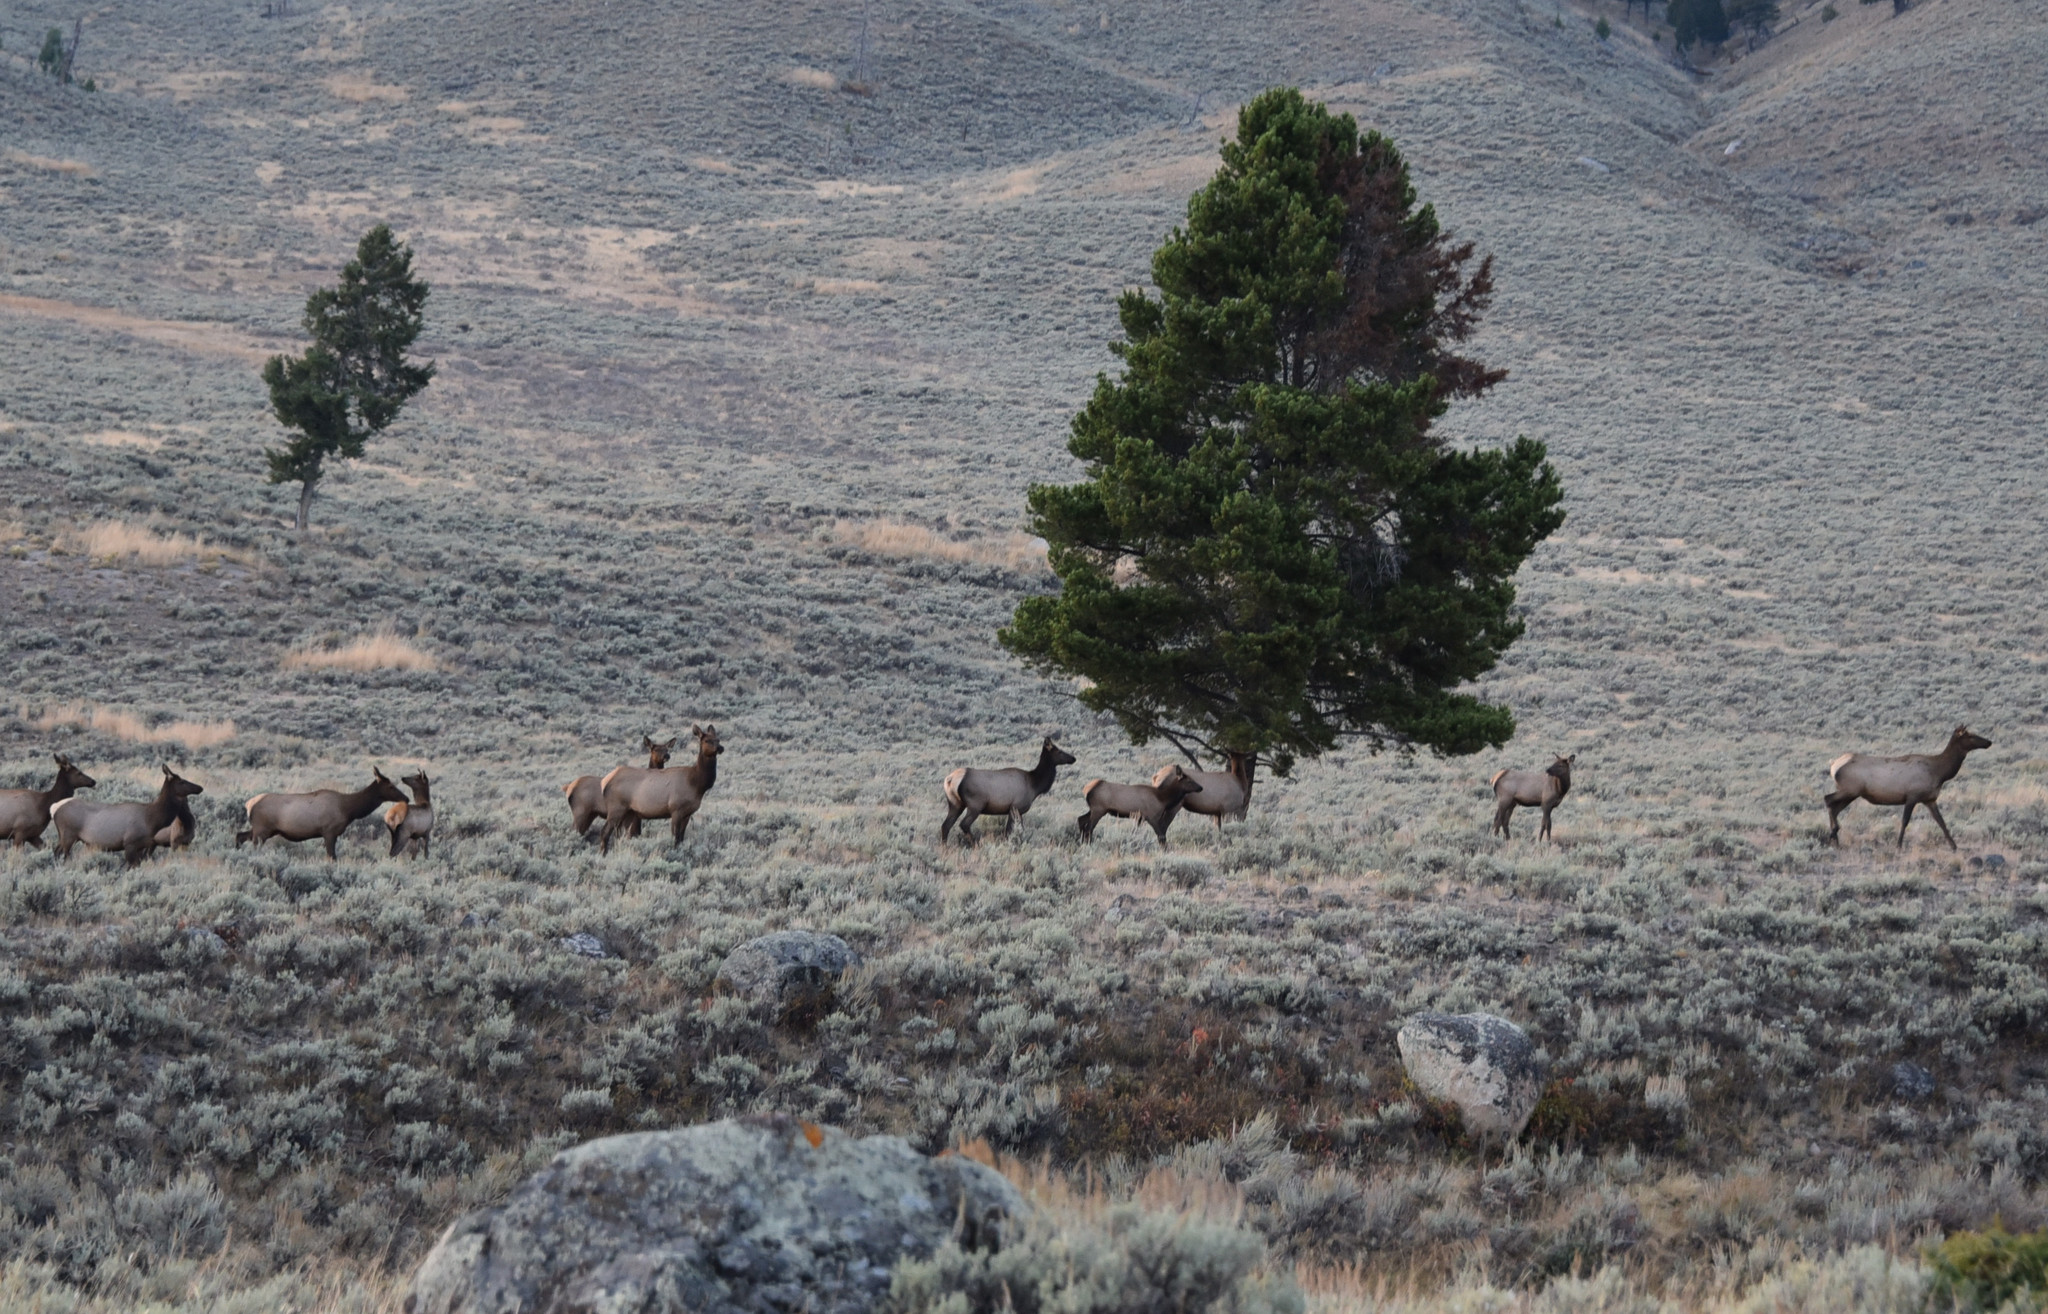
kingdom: Animalia
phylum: Chordata
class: Mammalia
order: Artiodactyla
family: Cervidae
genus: Cervus
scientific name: Cervus elaphus
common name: Red deer
